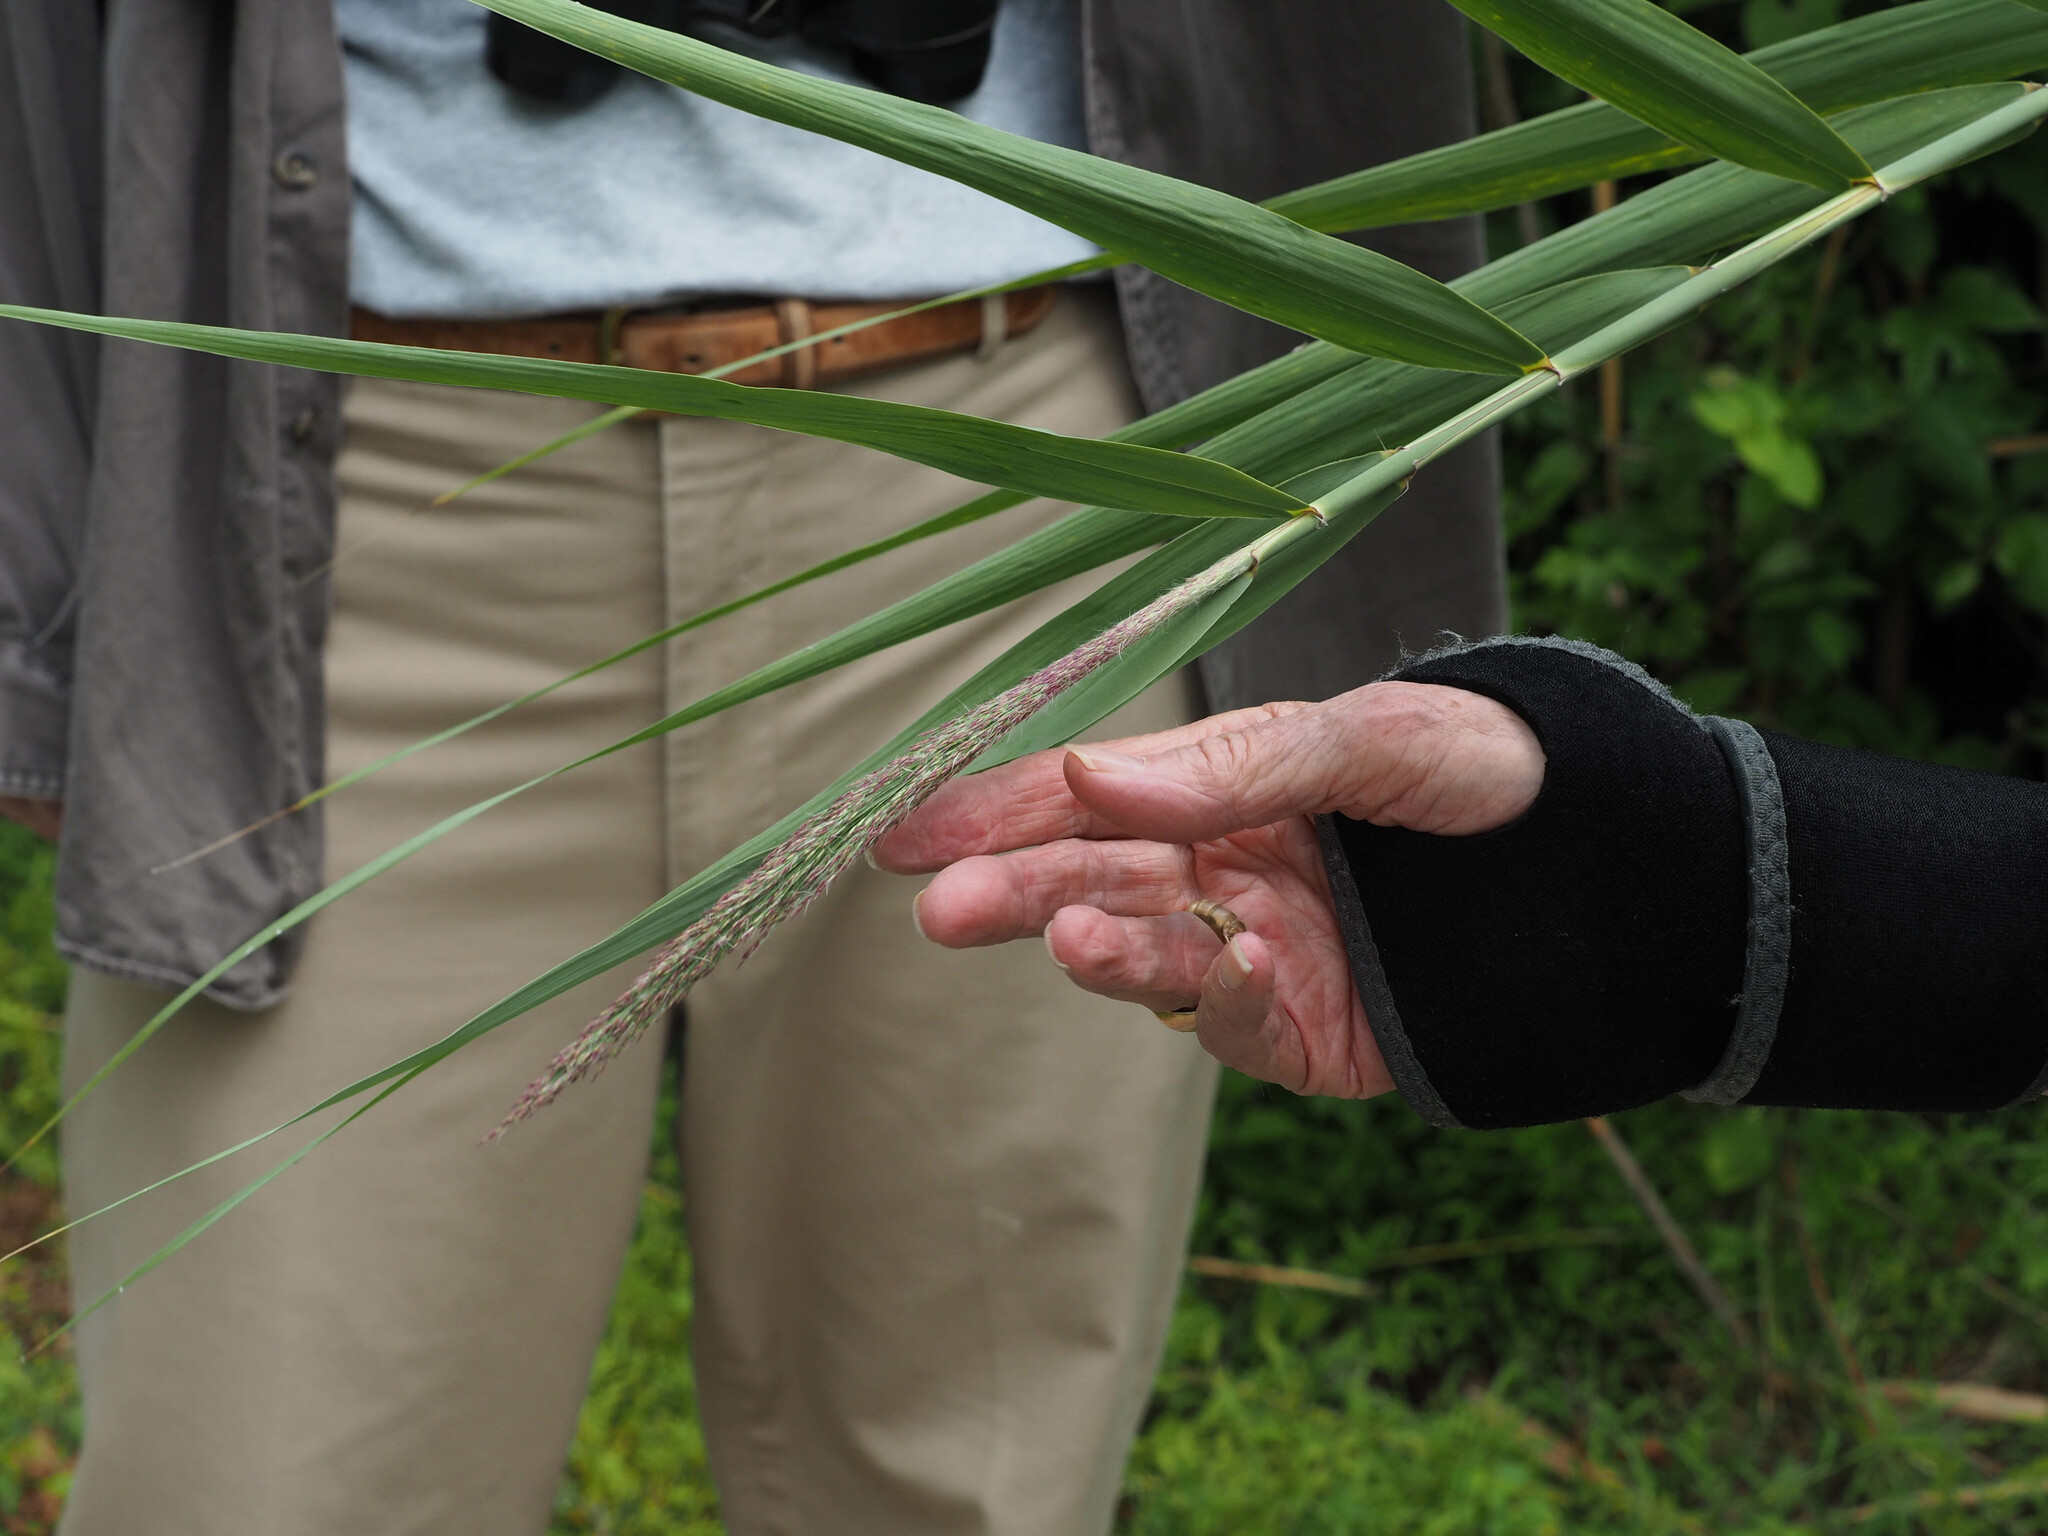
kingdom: Plantae
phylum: Tracheophyta
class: Liliopsida
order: Poales
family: Poaceae
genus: Phragmites
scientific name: Phragmites australis
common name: Common reed
